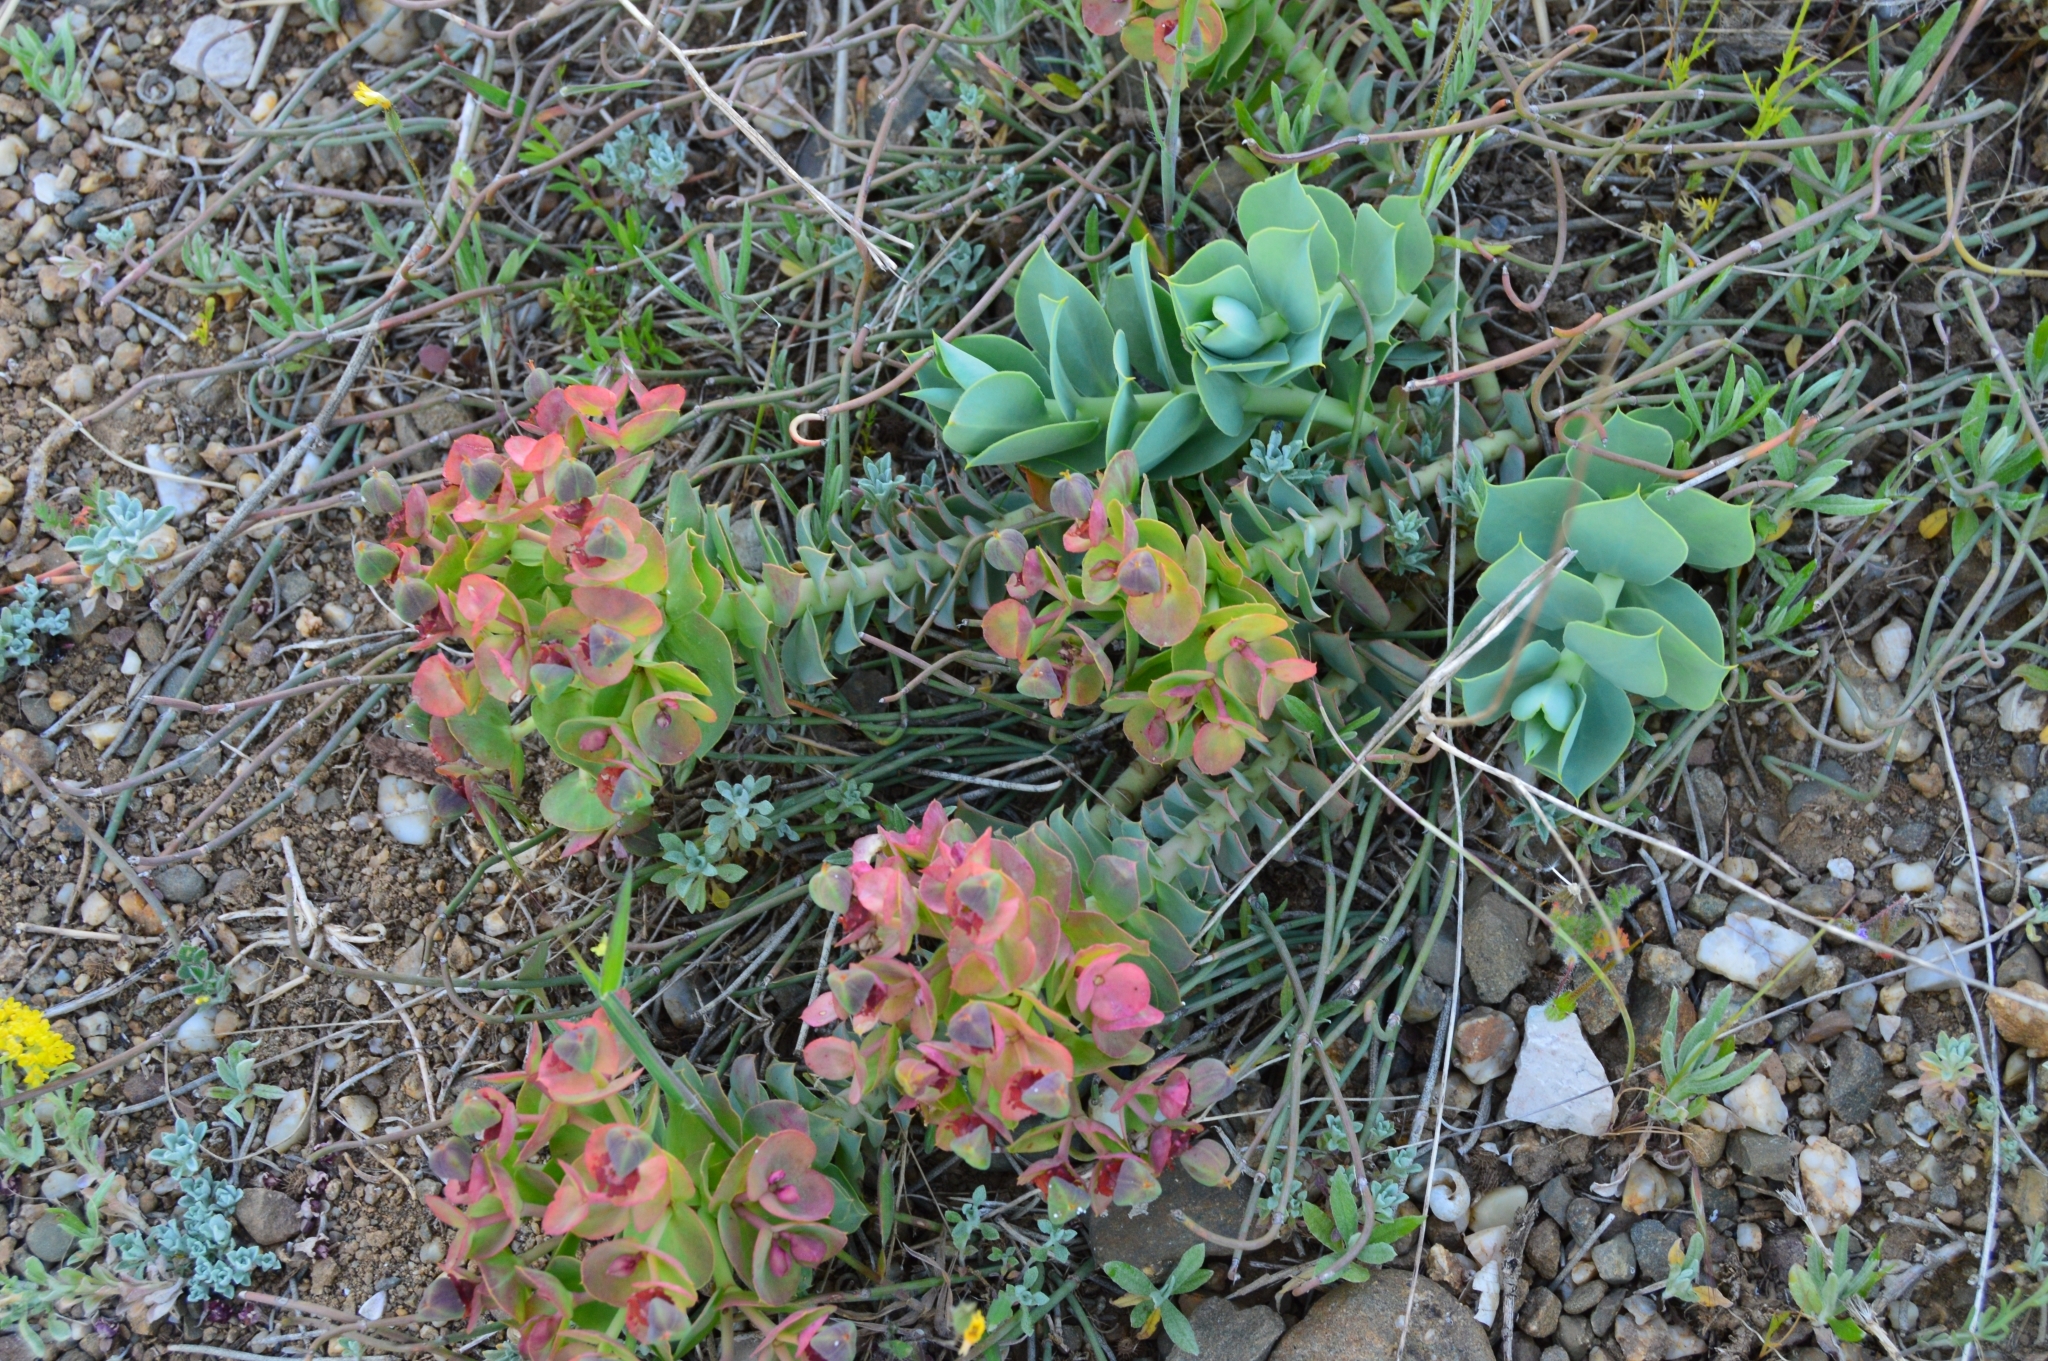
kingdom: Plantae
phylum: Tracheophyta
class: Magnoliopsida
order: Malpighiales
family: Euphorbiaceae
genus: Euphorbia
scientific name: Euphorbia myrsinites
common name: Myrtle spurge
